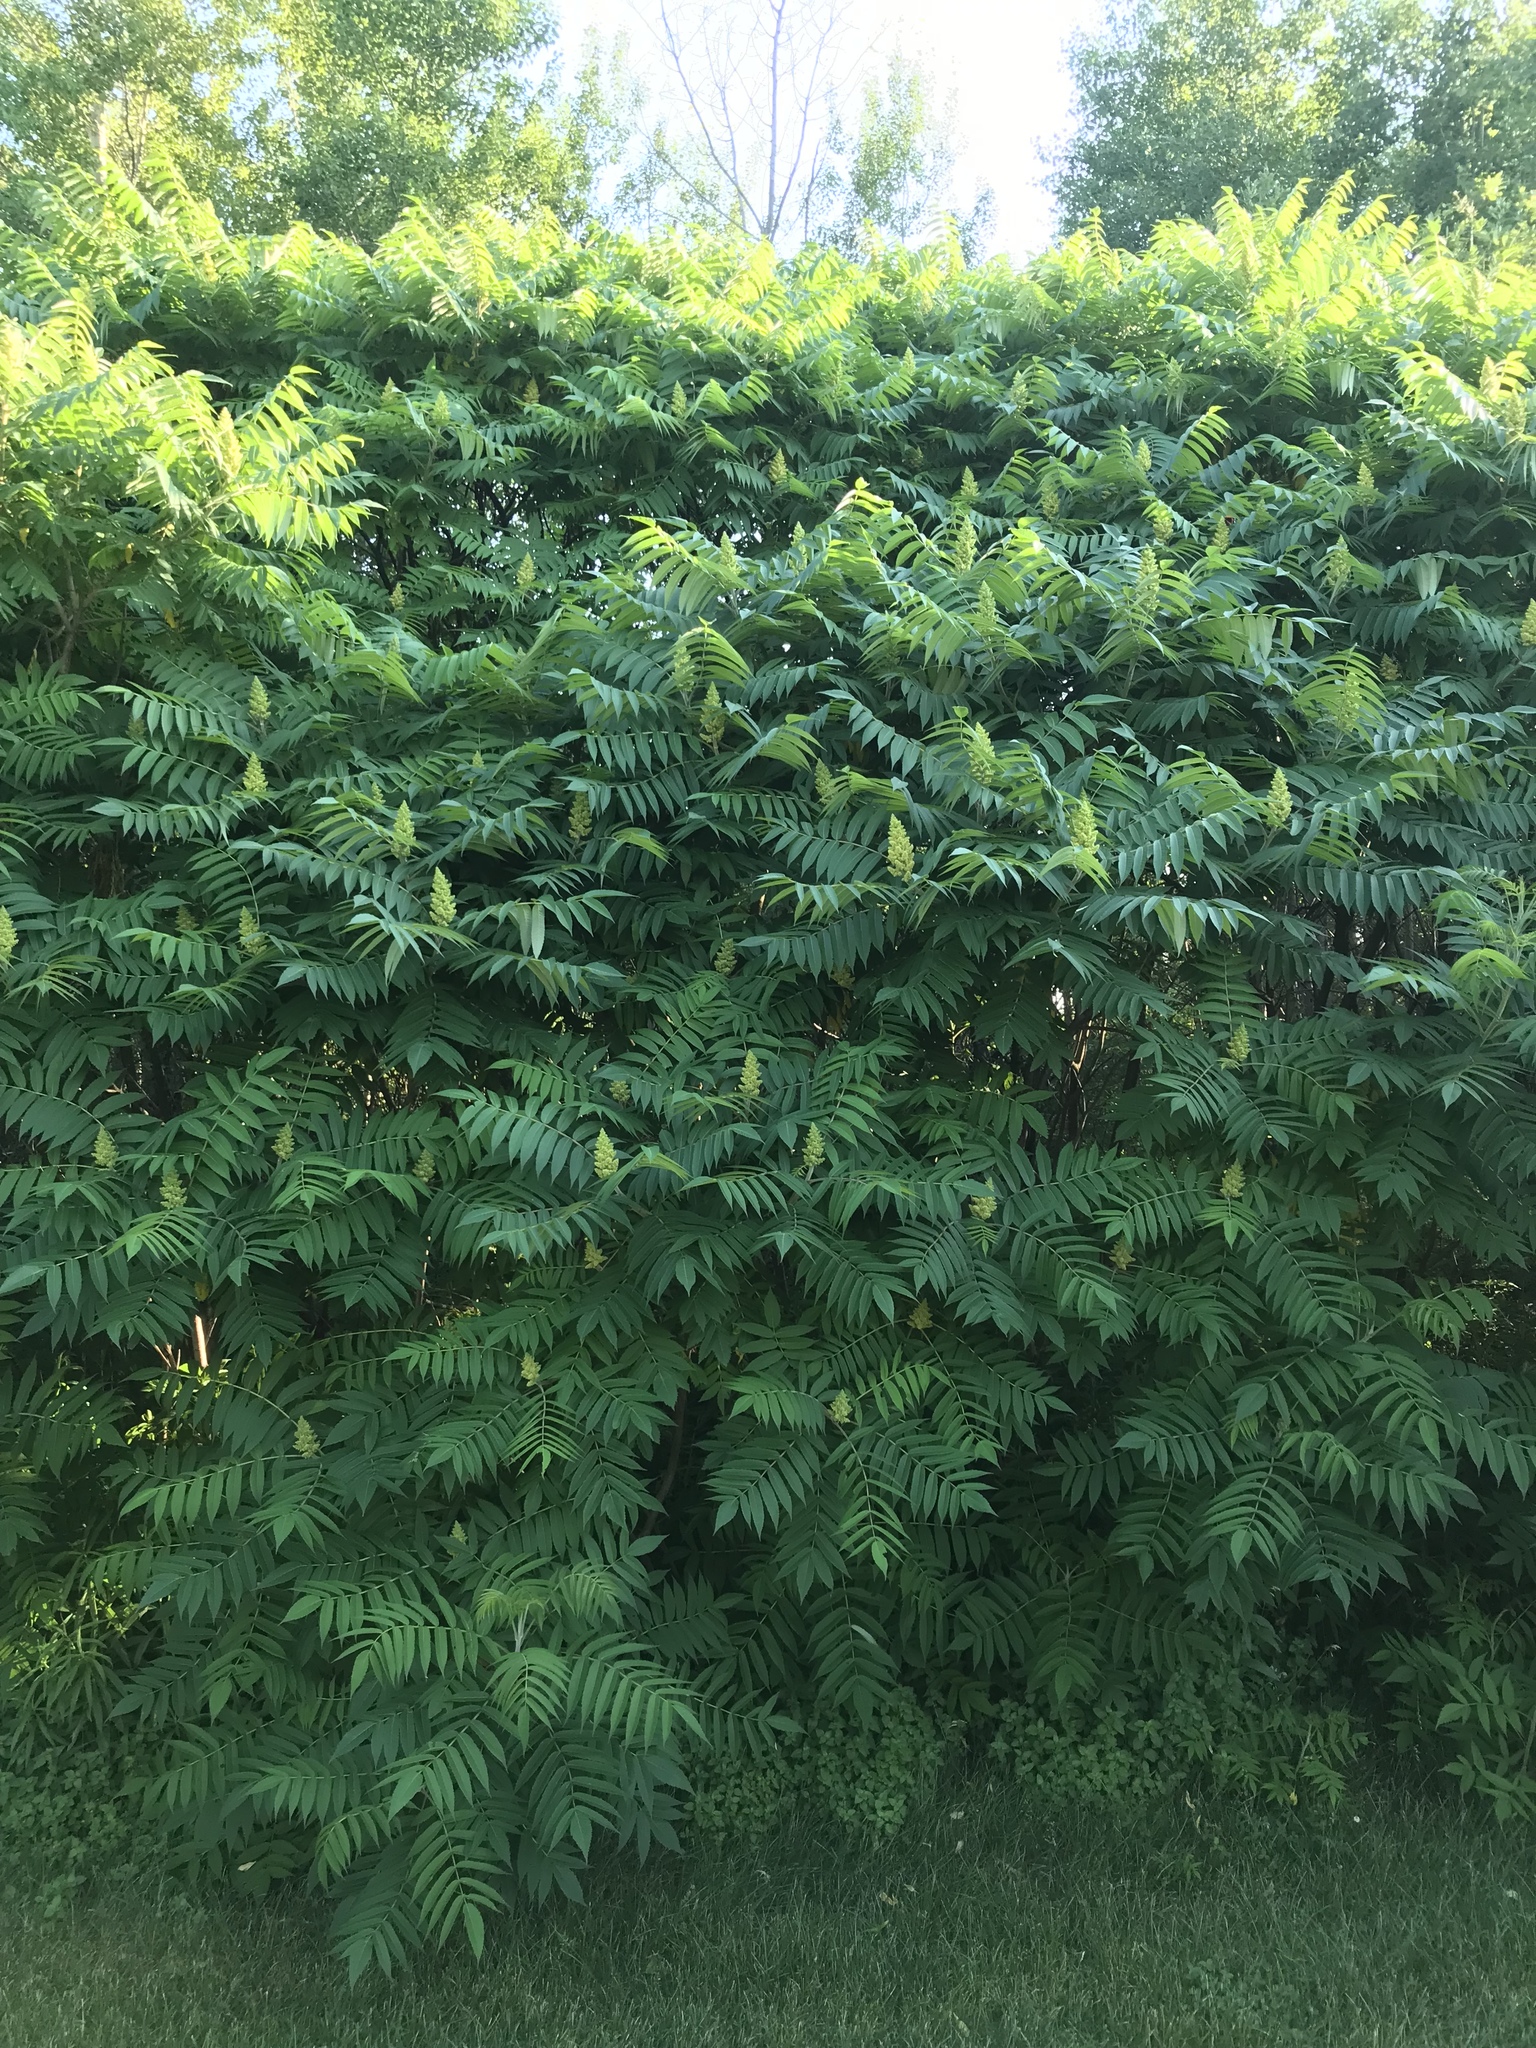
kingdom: Plantae
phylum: Tracheophyta
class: Magnoliopsida
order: Sapindales
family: Anacardiaceae
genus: Rhus
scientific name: Rhus typhina
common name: Staghorn sumac
